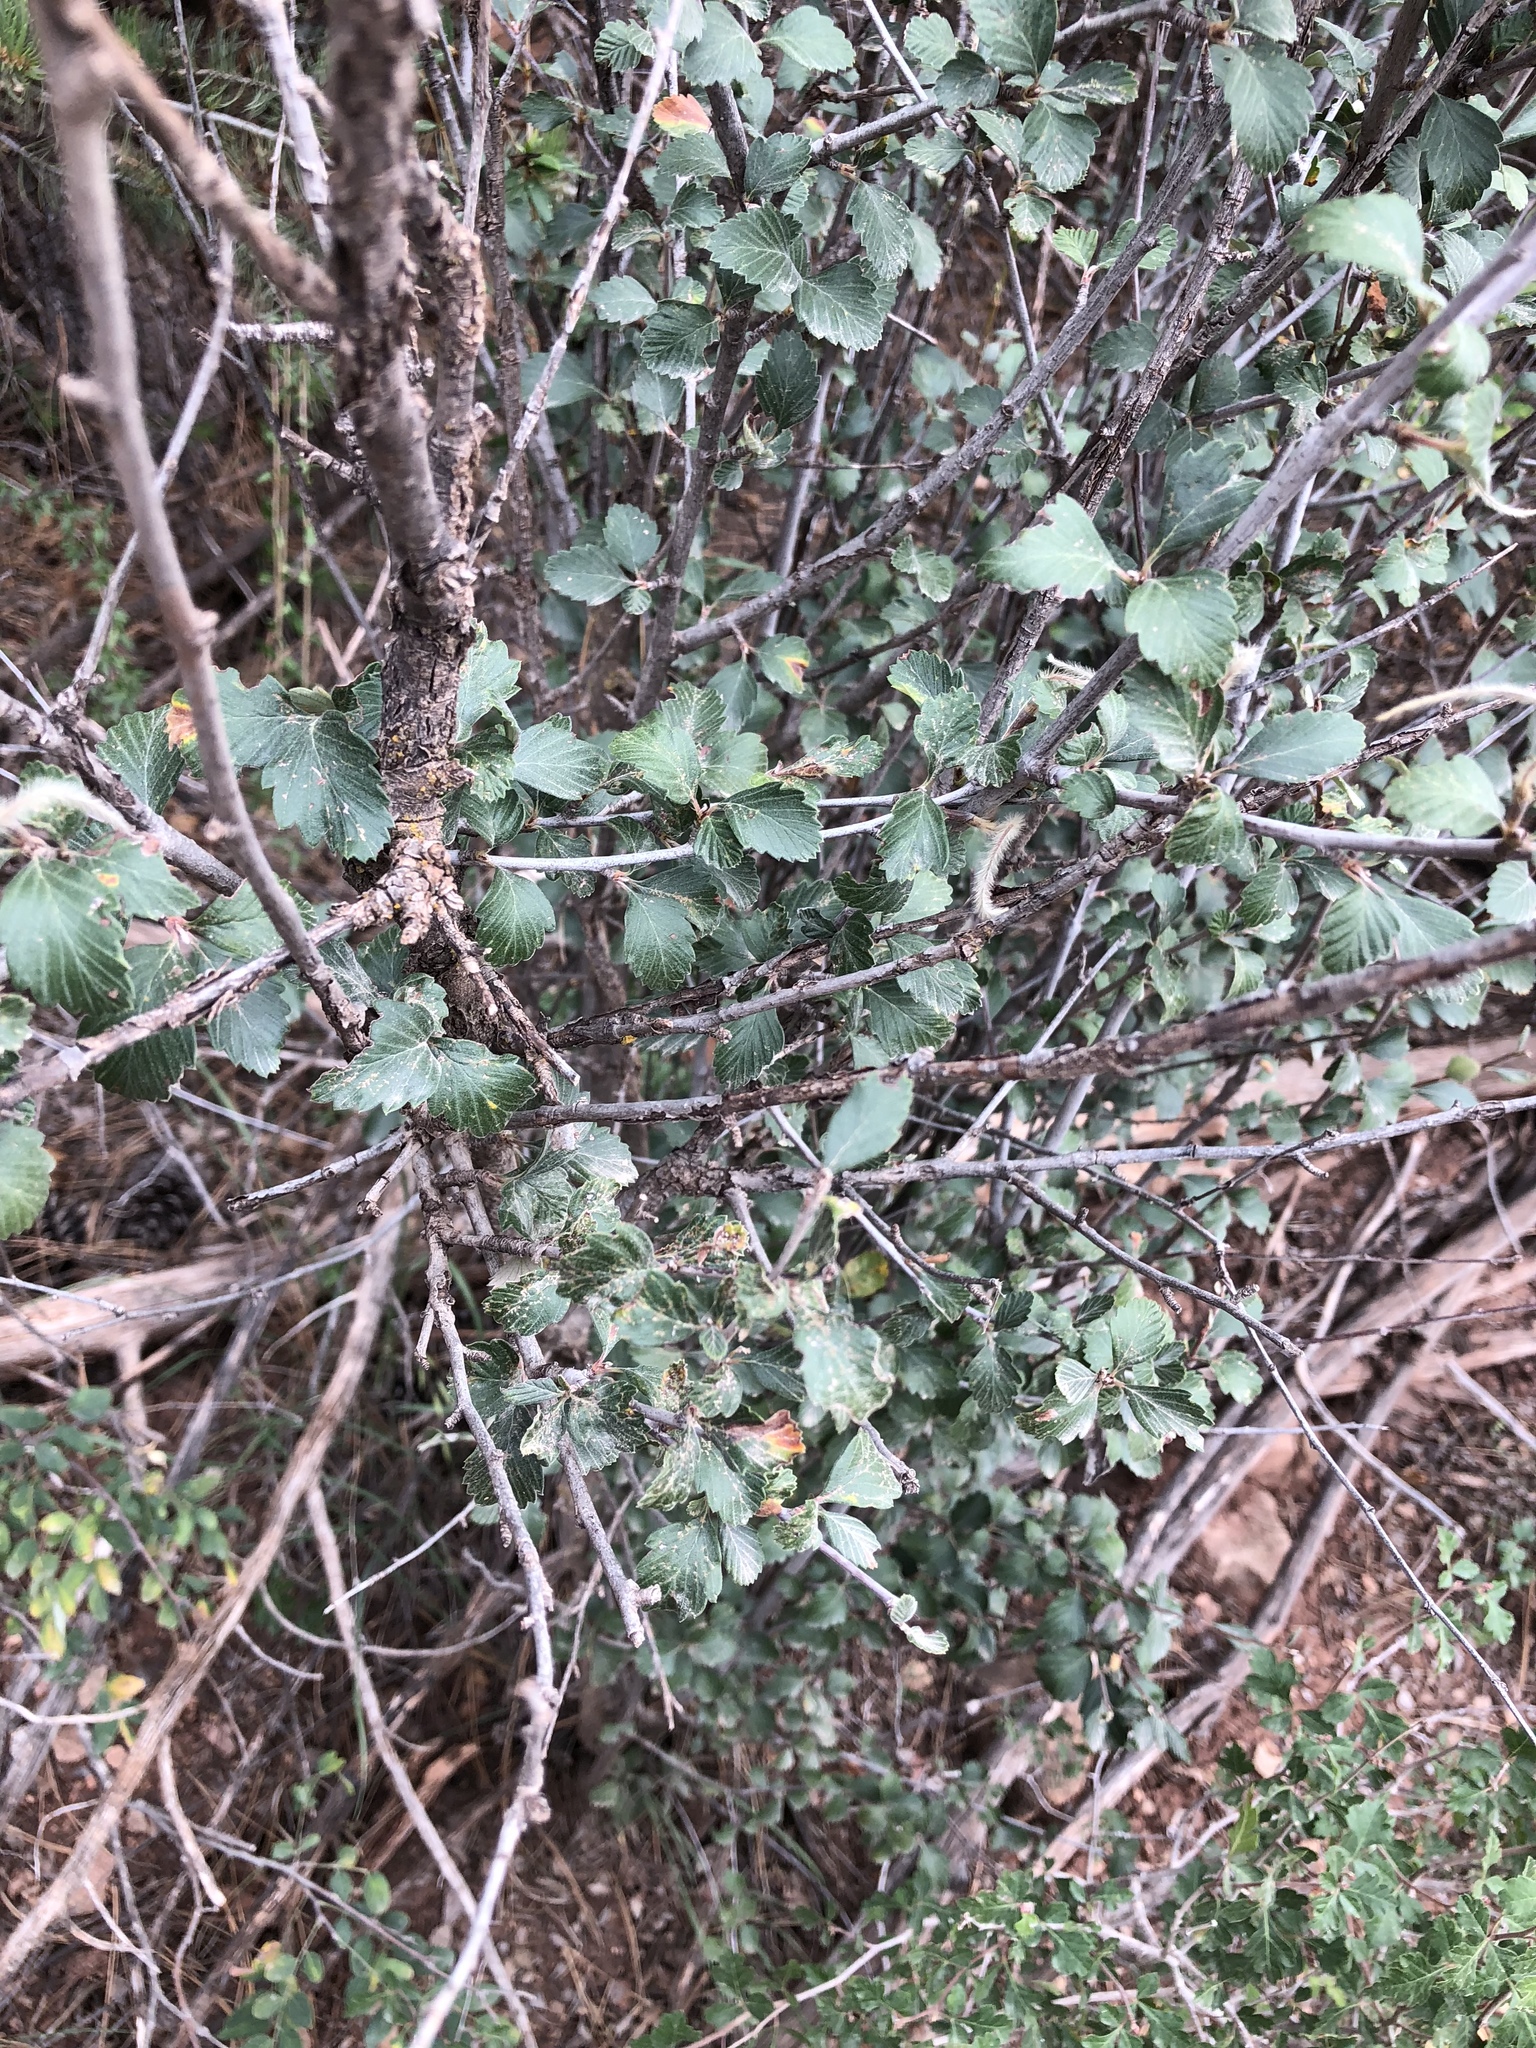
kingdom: Plantae
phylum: Tracheophyta
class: Magnoliopsida
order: Rosales
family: Rosaceae
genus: Cercocarpus
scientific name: Cercocarpus breviflorus
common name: Wright's mountain-mahogany
